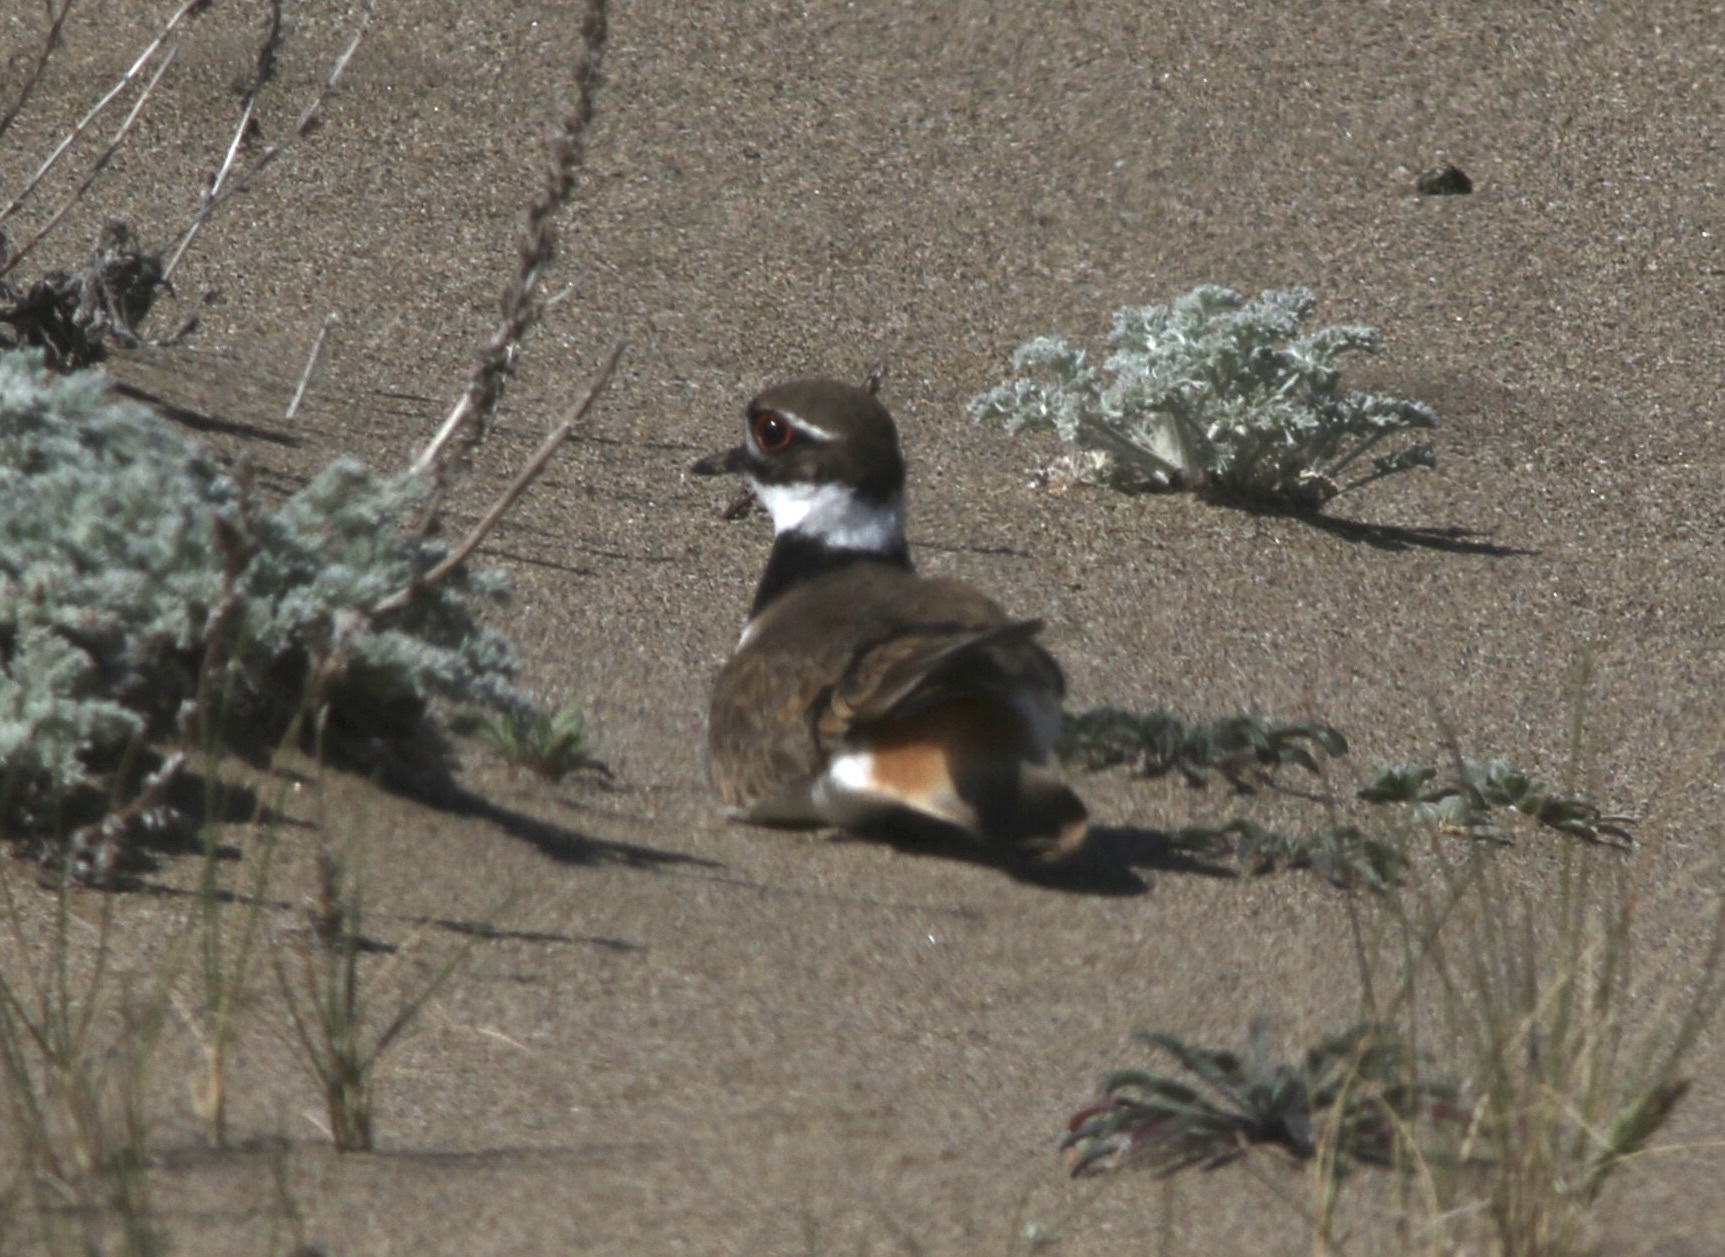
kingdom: Animalia
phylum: Chordata
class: Aves
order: Charadriiformes
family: Charadriidae
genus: Charadrius
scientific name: Charadrius vociferus
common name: Killdeer
